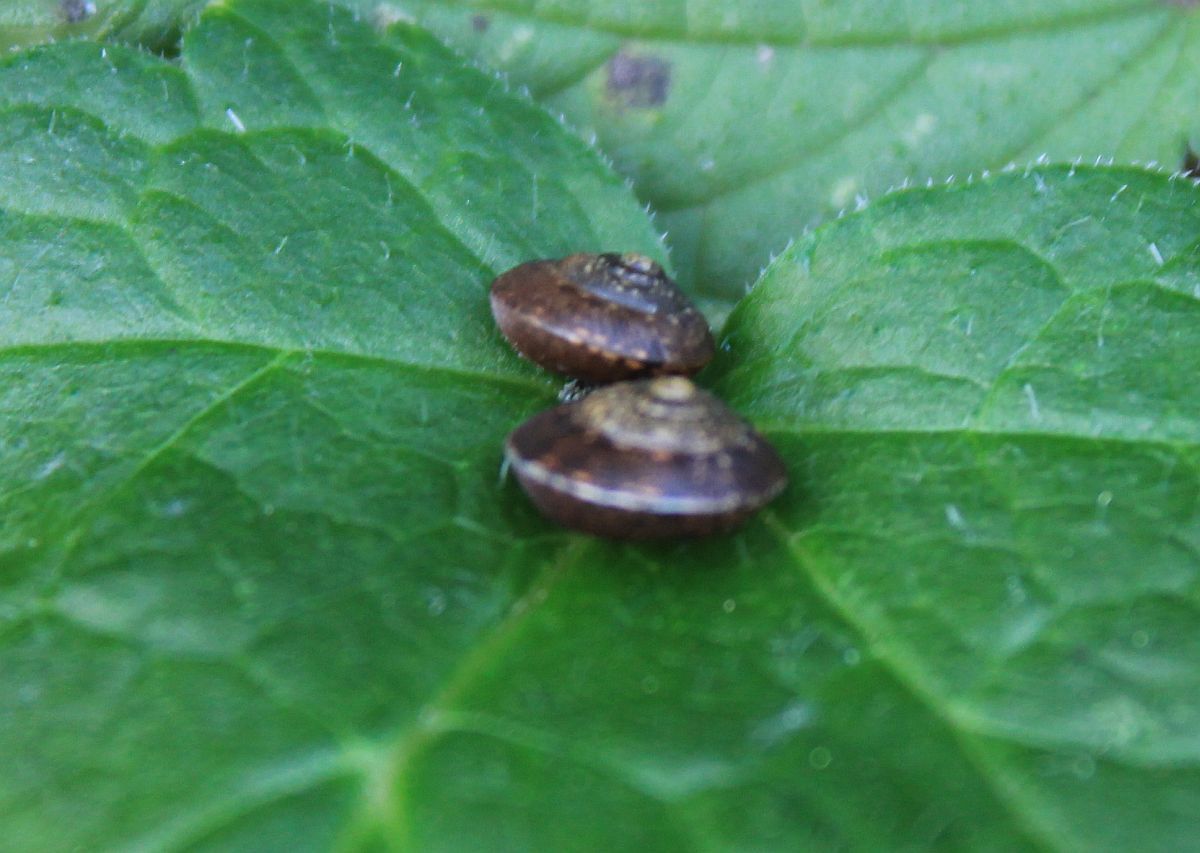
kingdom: Animalia
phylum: Mollusca
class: Gastropoda
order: Stylommatophora
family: Hygromiidae
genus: Hygromia
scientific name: Hygromia cinctella
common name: Girdled snail
